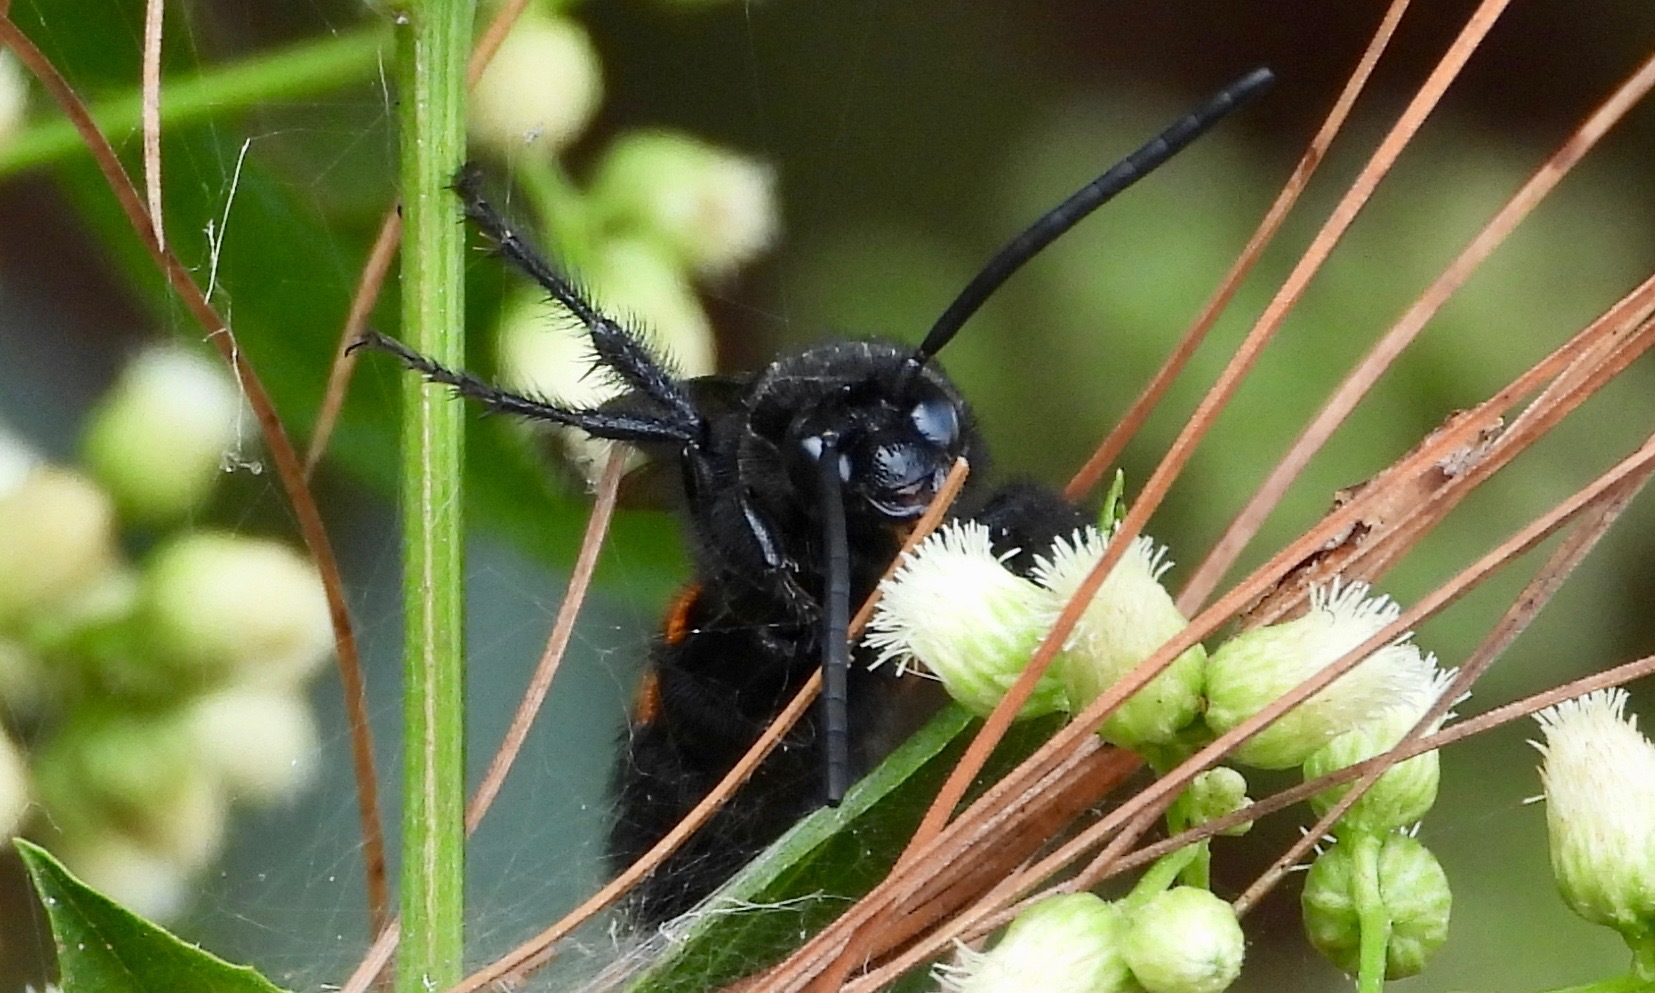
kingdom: Animalia
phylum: Arthropoda
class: Insecta
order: Hymenoptera
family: Scoliidae
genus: Pygodasis
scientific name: Pygodasis ephippium
